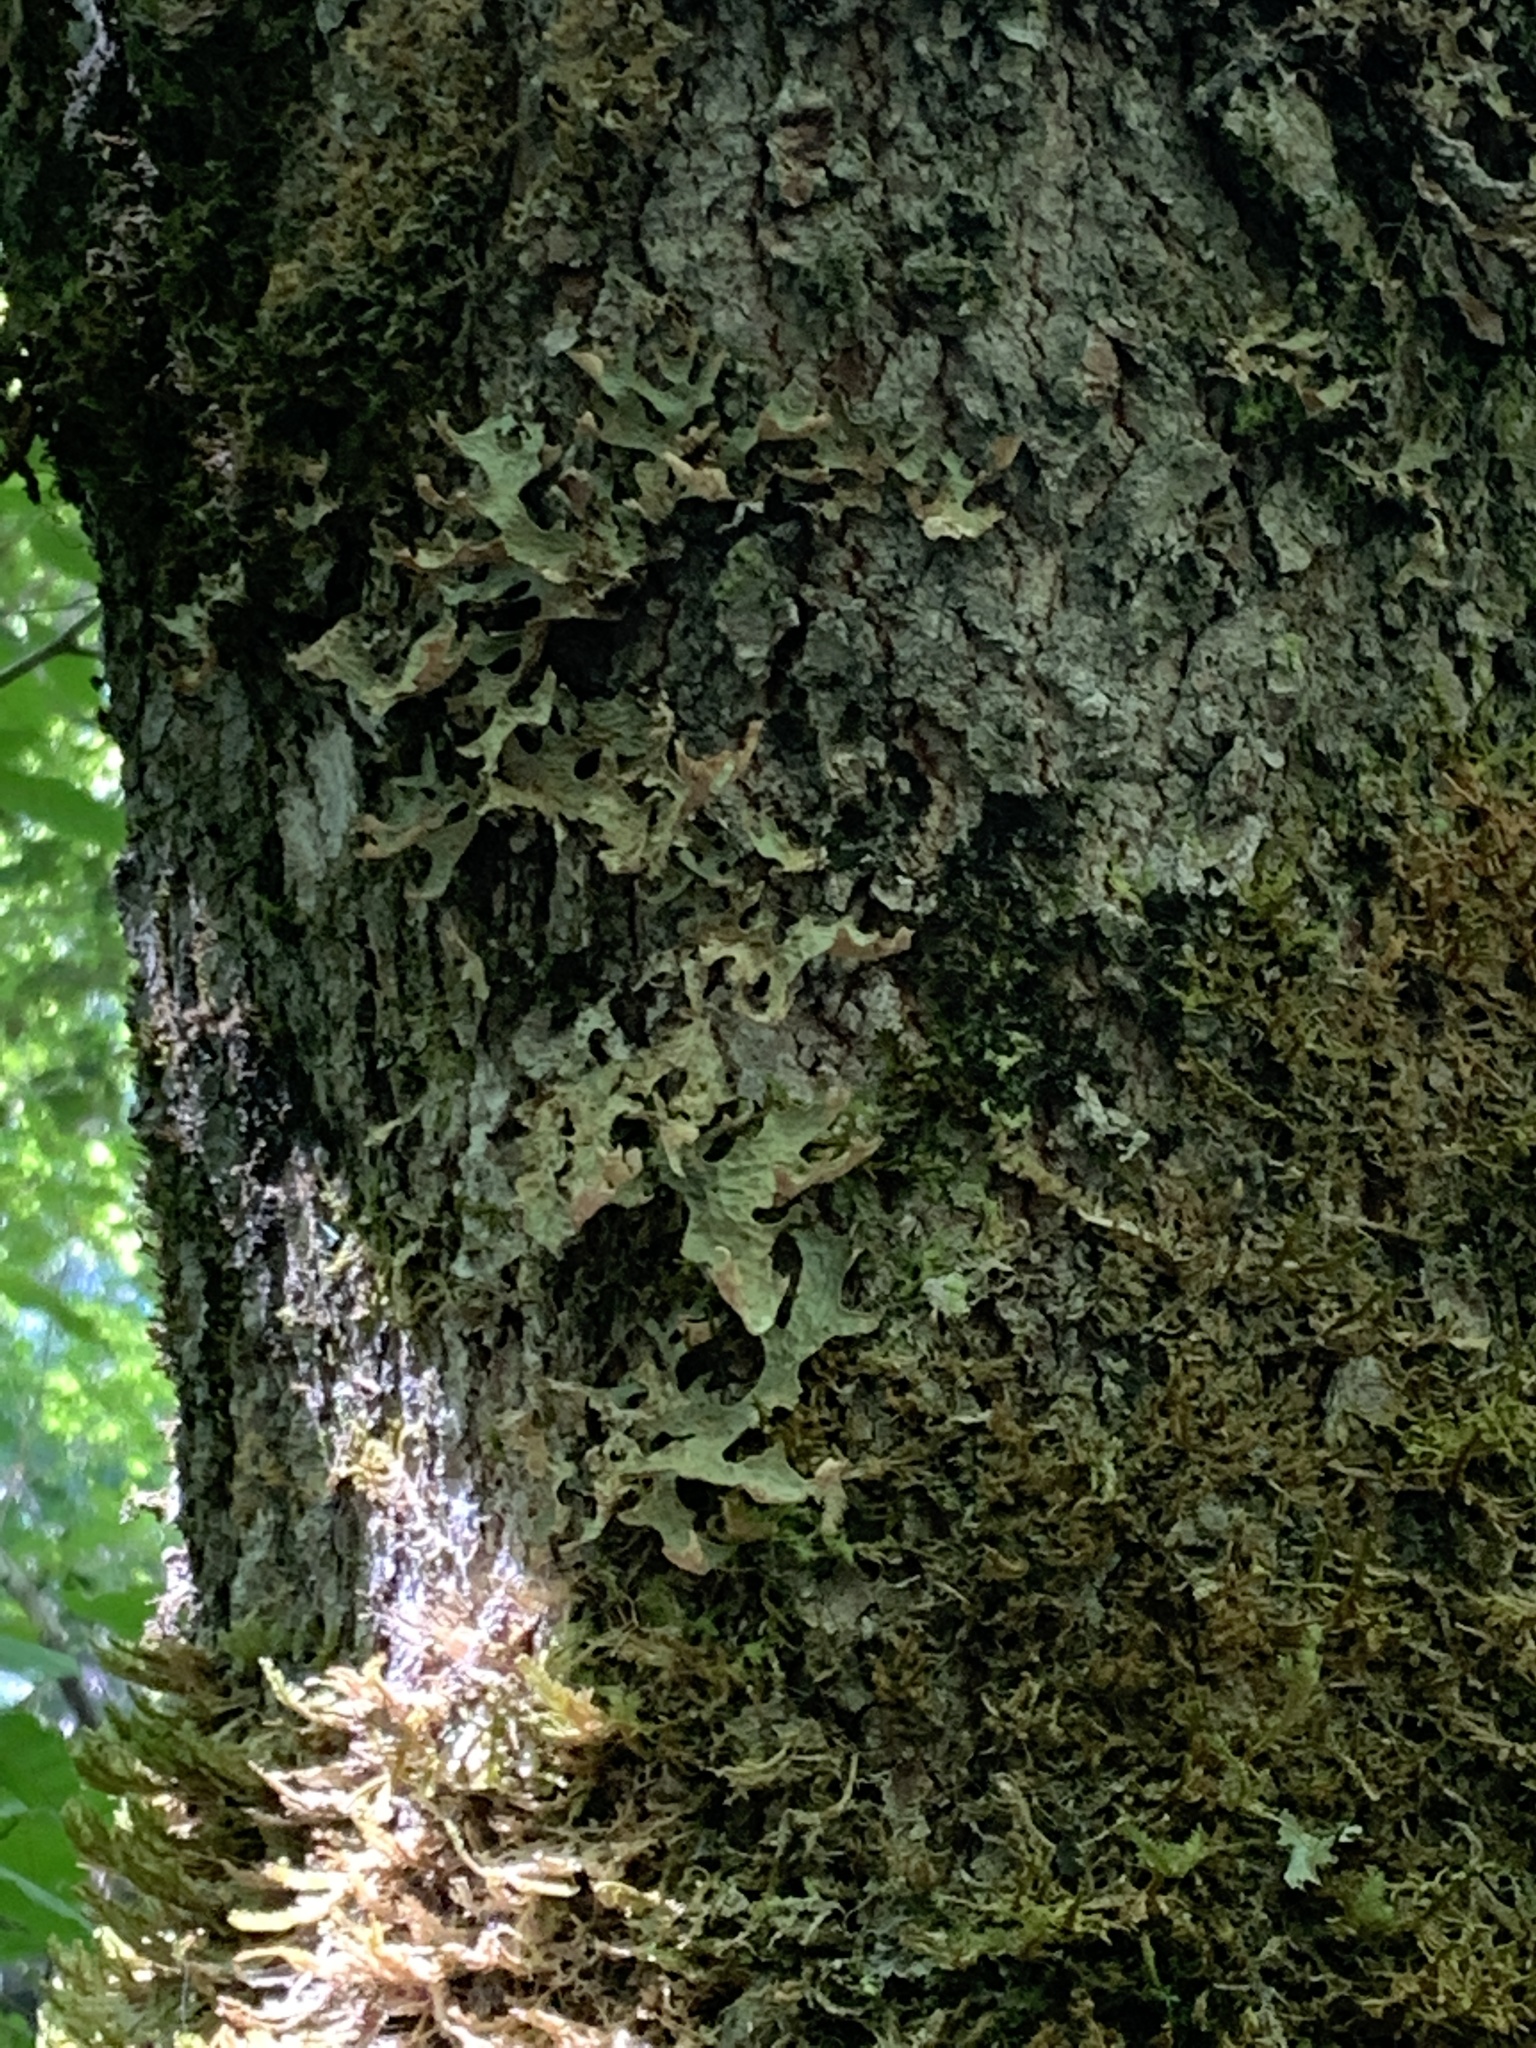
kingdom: Fungi
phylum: Ascomycota
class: Lecanoromycetes
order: Peltigerales
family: Lobariaceae
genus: Lobaria
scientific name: Lobaria pulmonaria
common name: Lungwort
